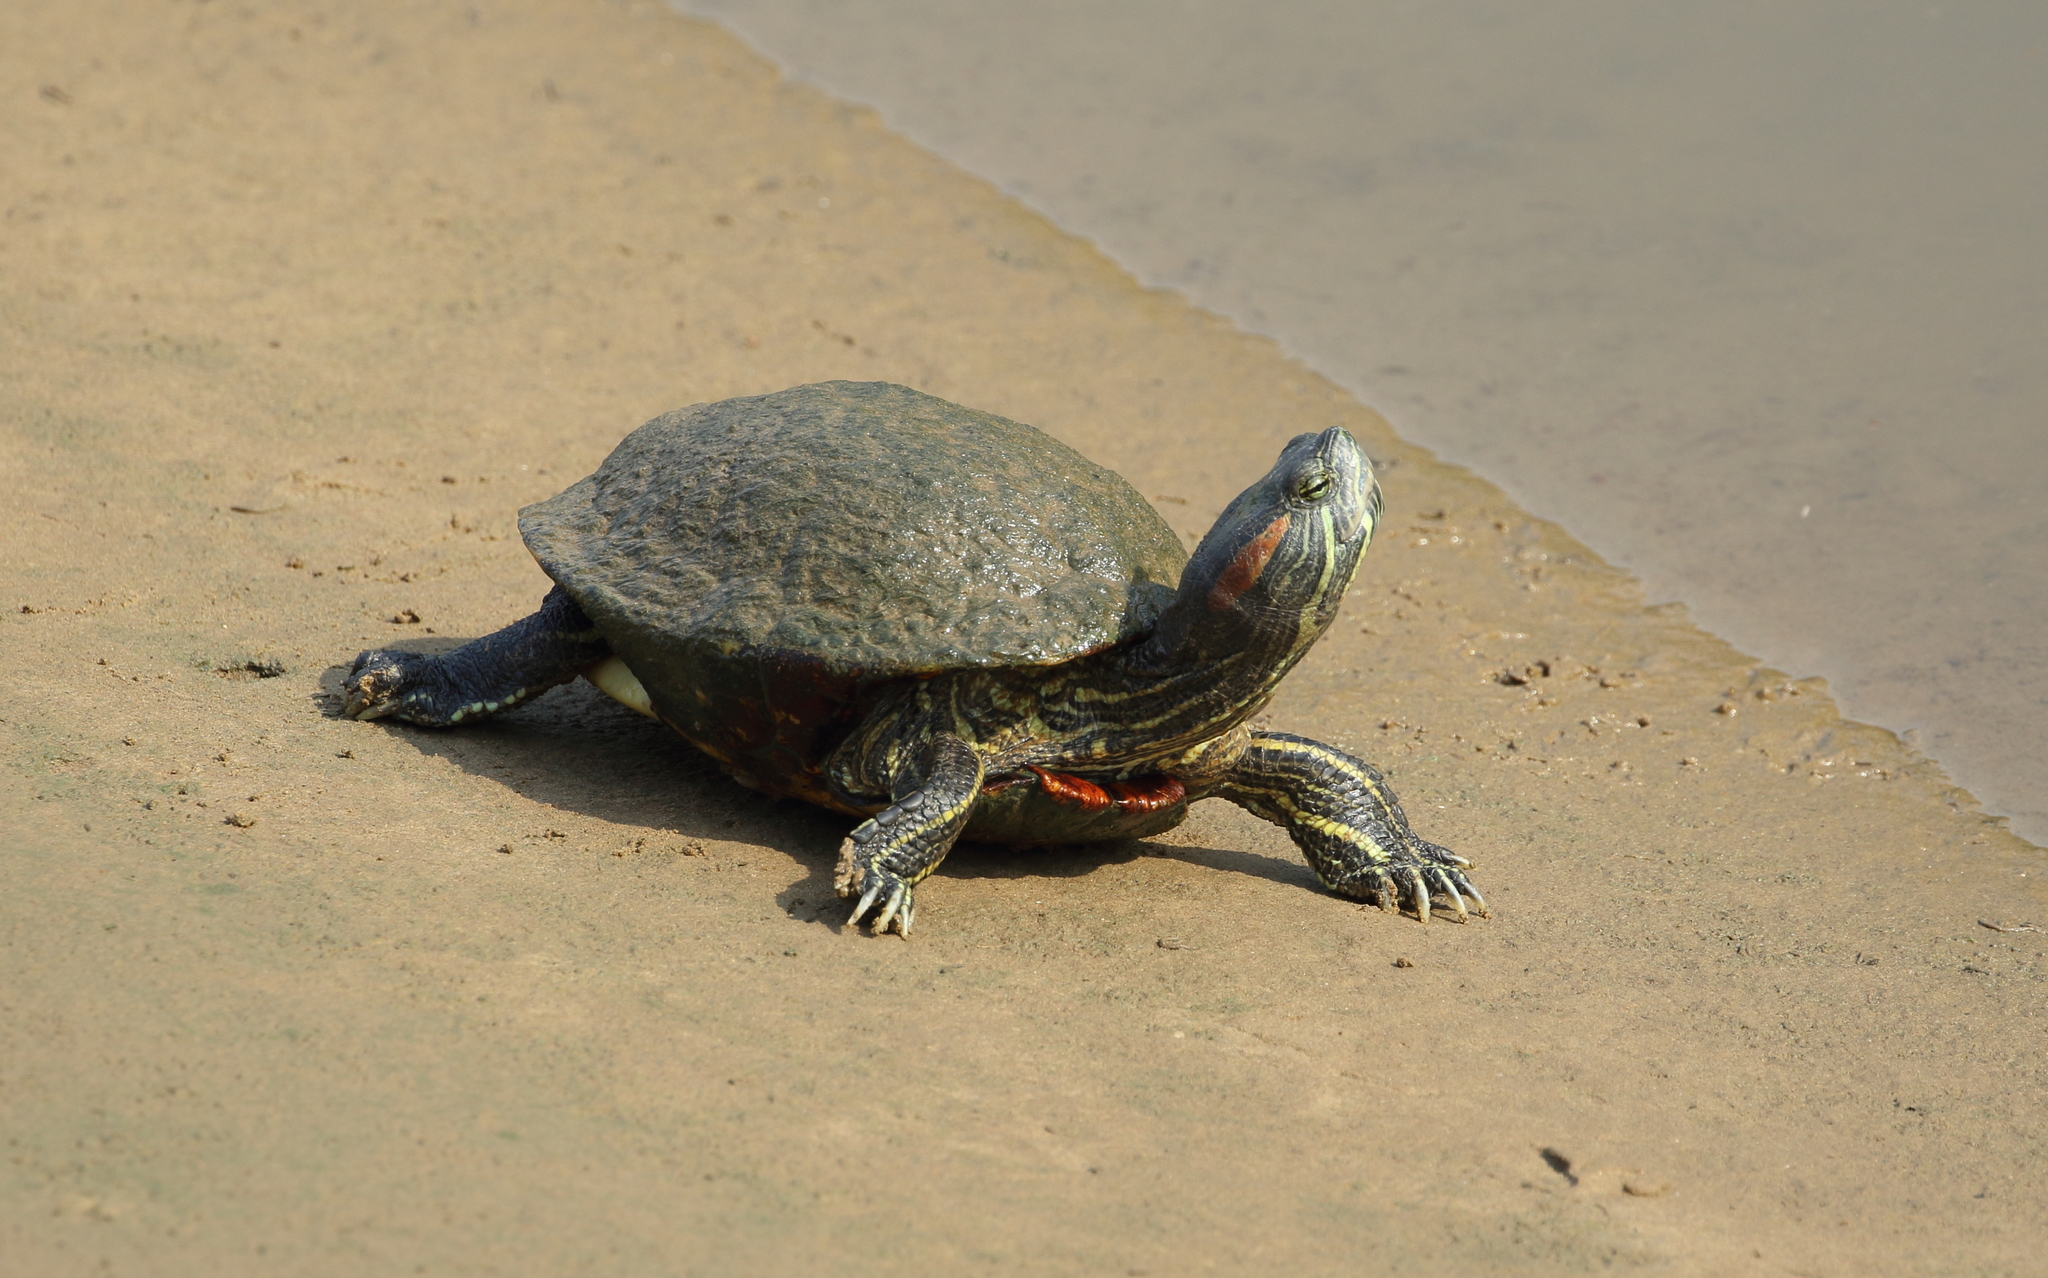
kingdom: Animalia
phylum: Chordata
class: Testudines
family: Emydidae
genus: Trachemys
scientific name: Trachemys scripta
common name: Slider
